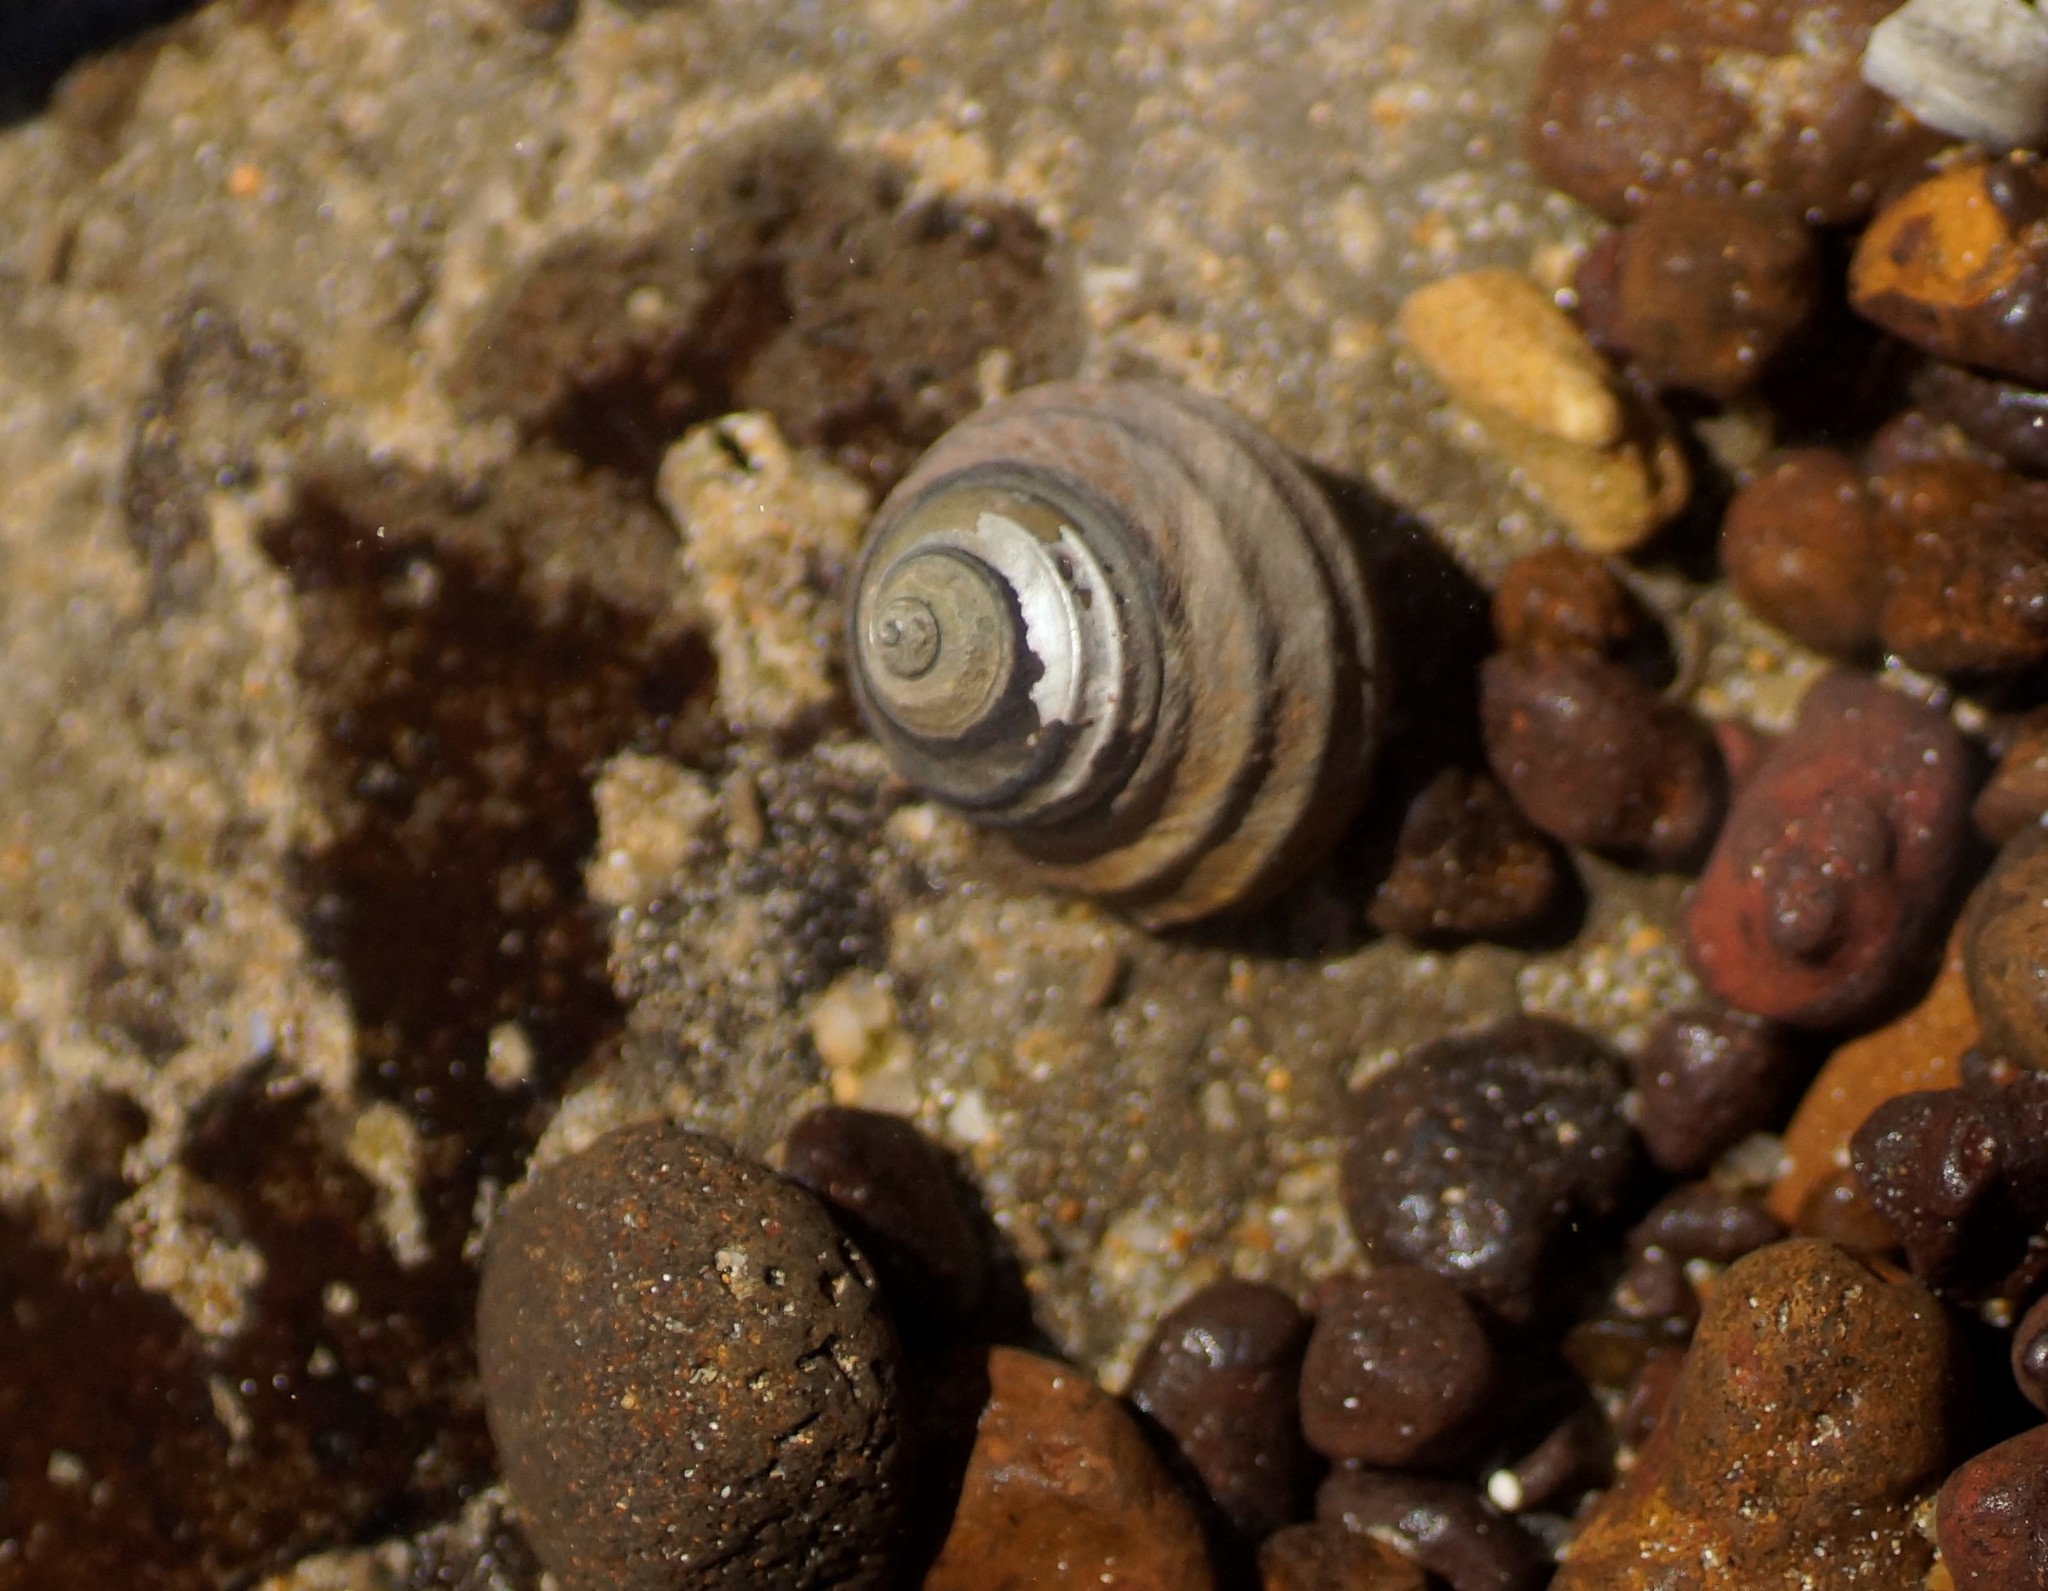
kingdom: Animalia
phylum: Mollusca
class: Gastropoda
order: Trochida
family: Trochidae
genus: Austrocochlea
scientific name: Austrocochlea constricta
